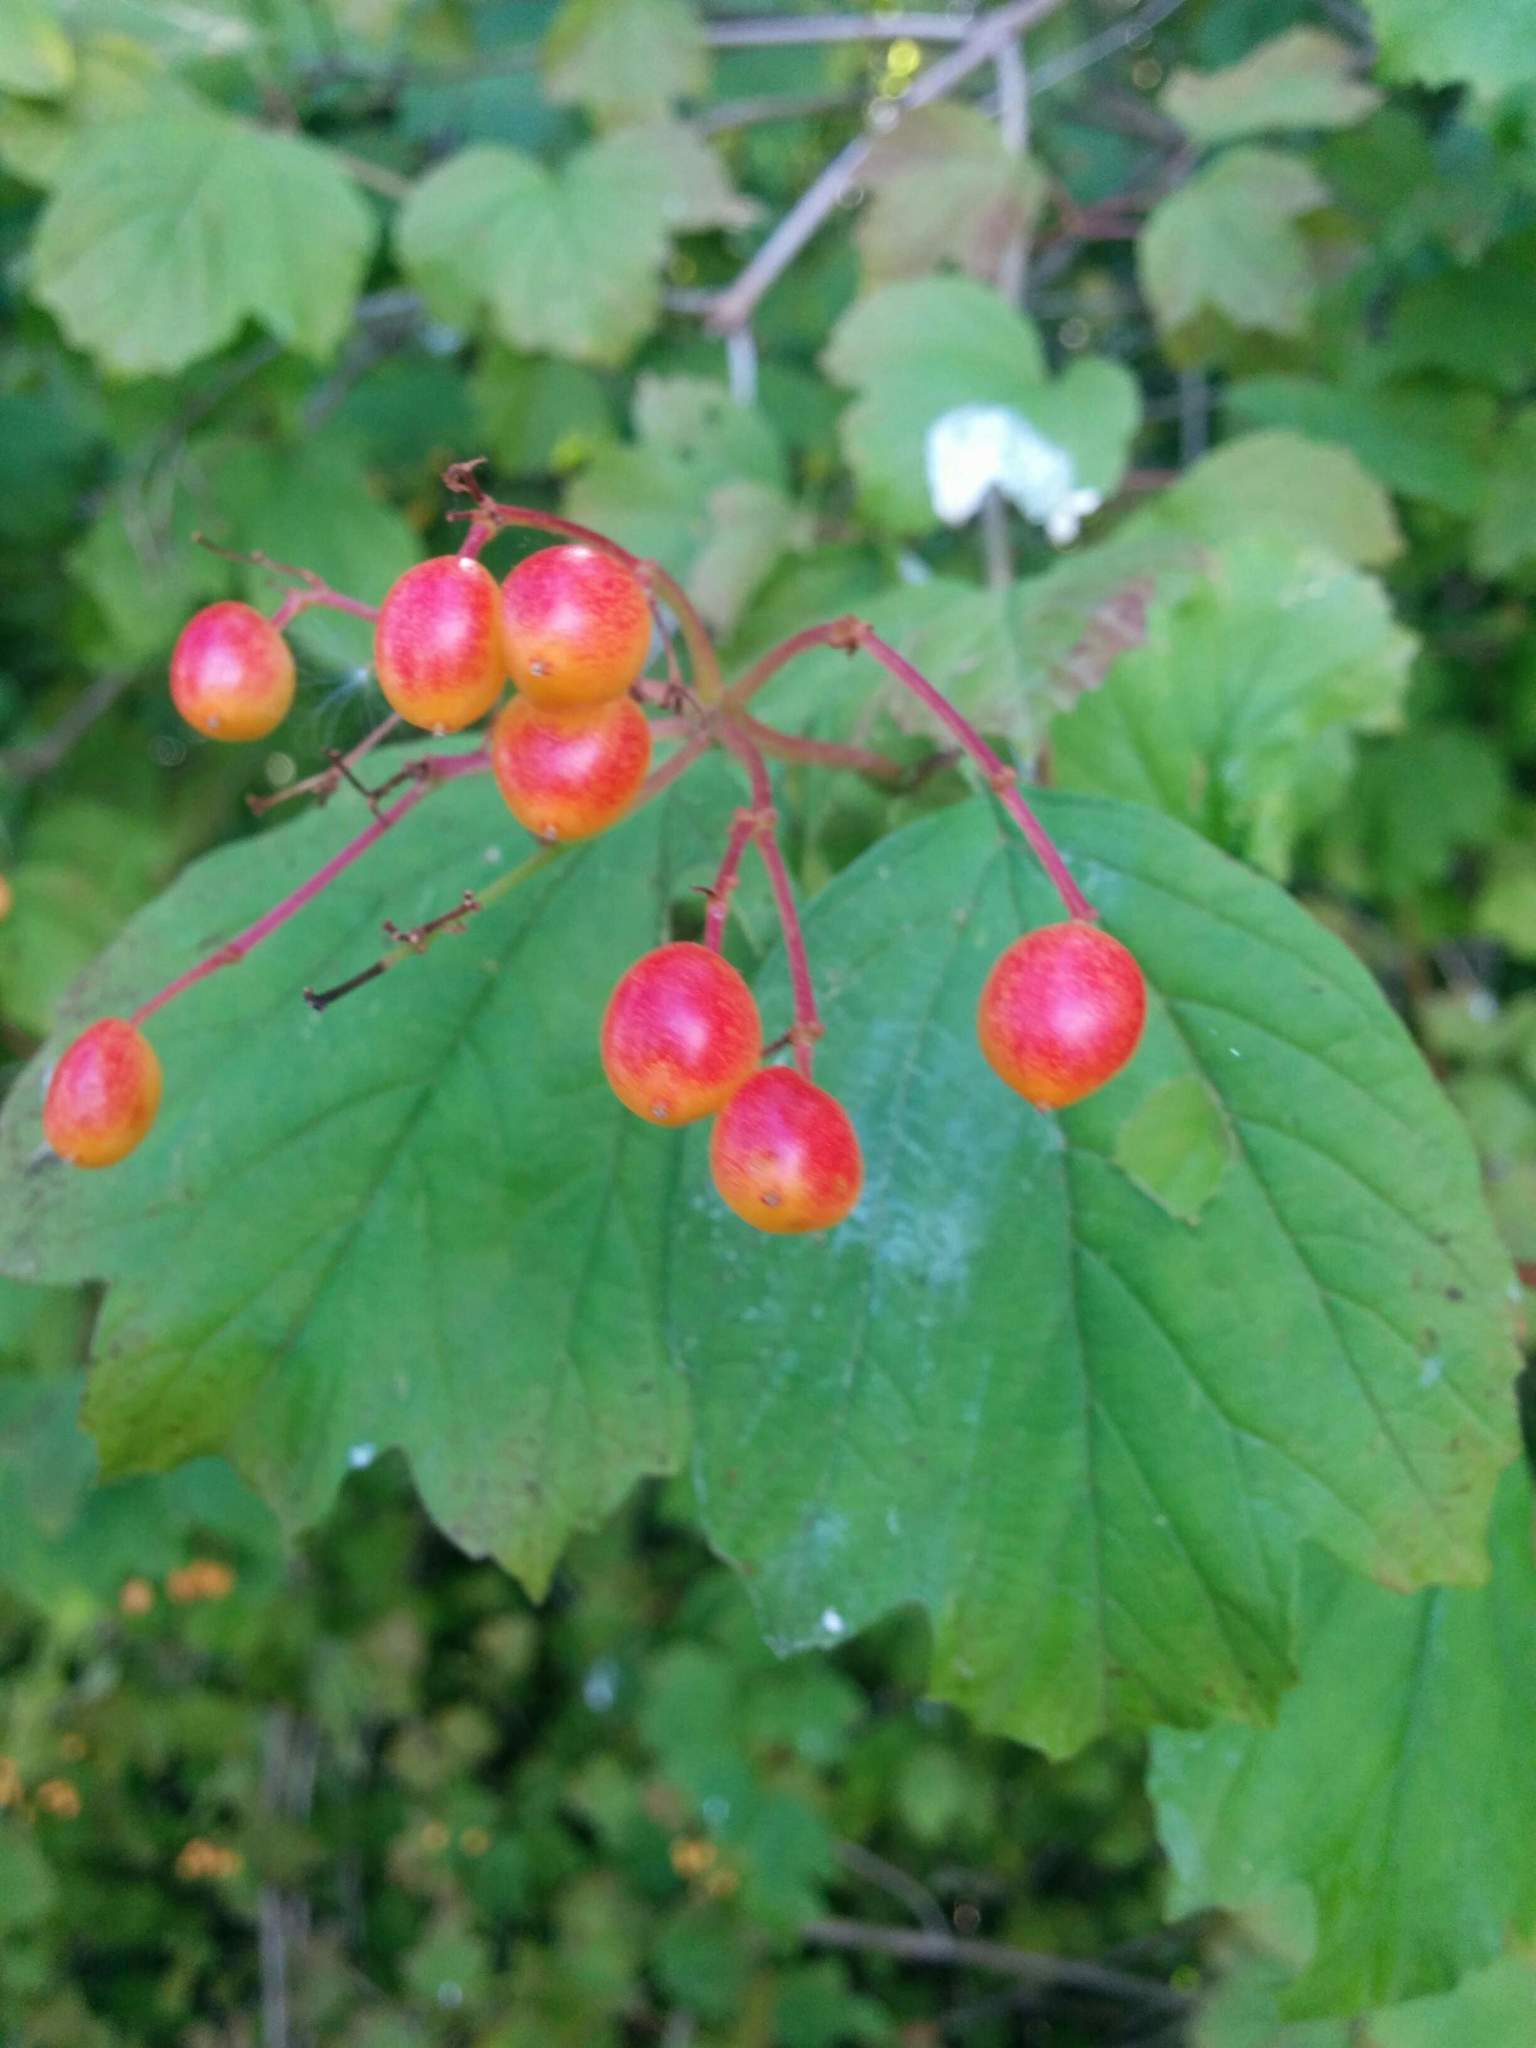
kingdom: Plantae
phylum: Tracheophyta
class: Magnoliopsida
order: Dipsacales
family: Viburnaceae
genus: Viburnum
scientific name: Viburnum opulus
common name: Guelder-rose
